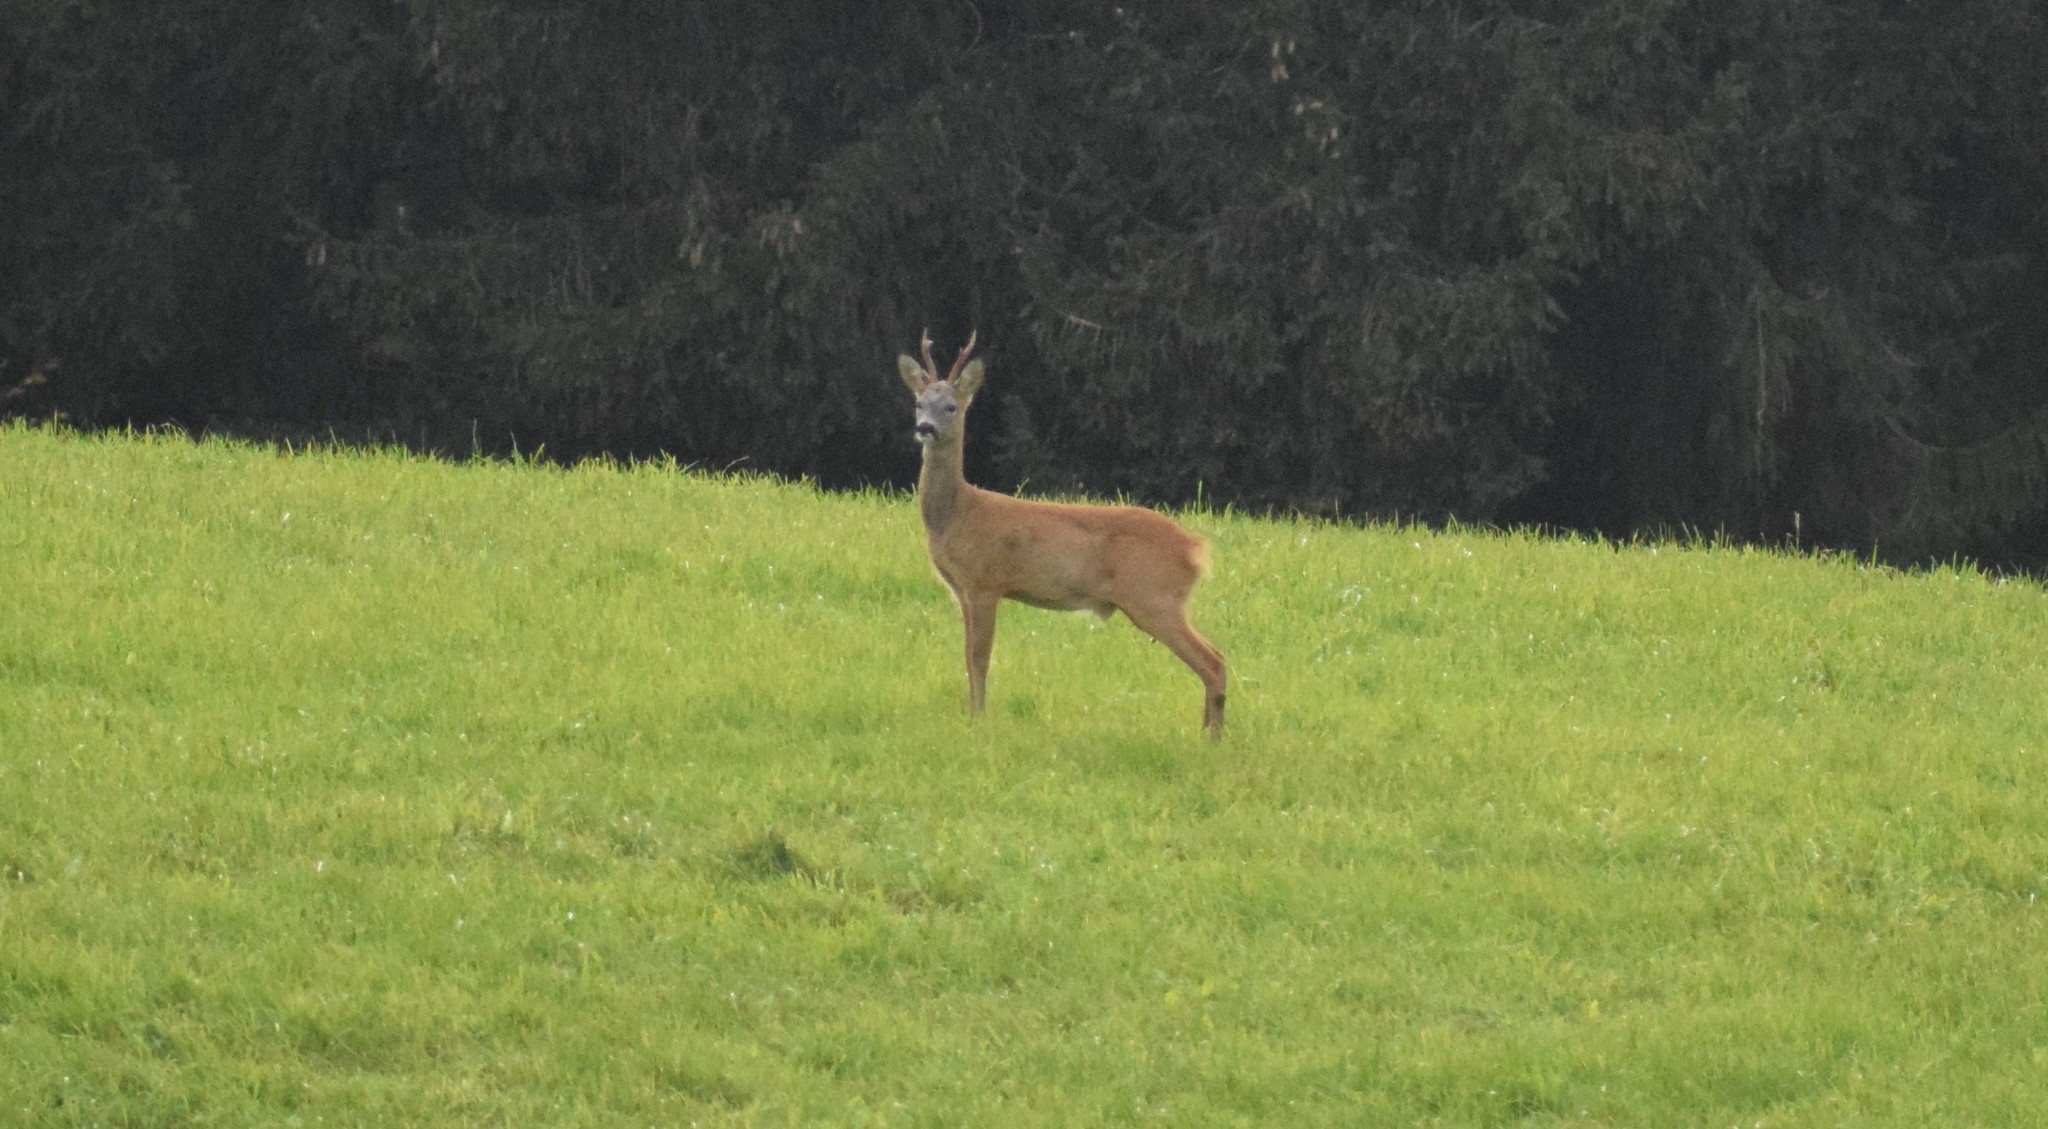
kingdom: Animalia
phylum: Chordata
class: Mammalia
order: Artiodactyla
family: Cervidae
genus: Capreolus
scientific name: Capreolus capreolus
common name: Western roe deer
